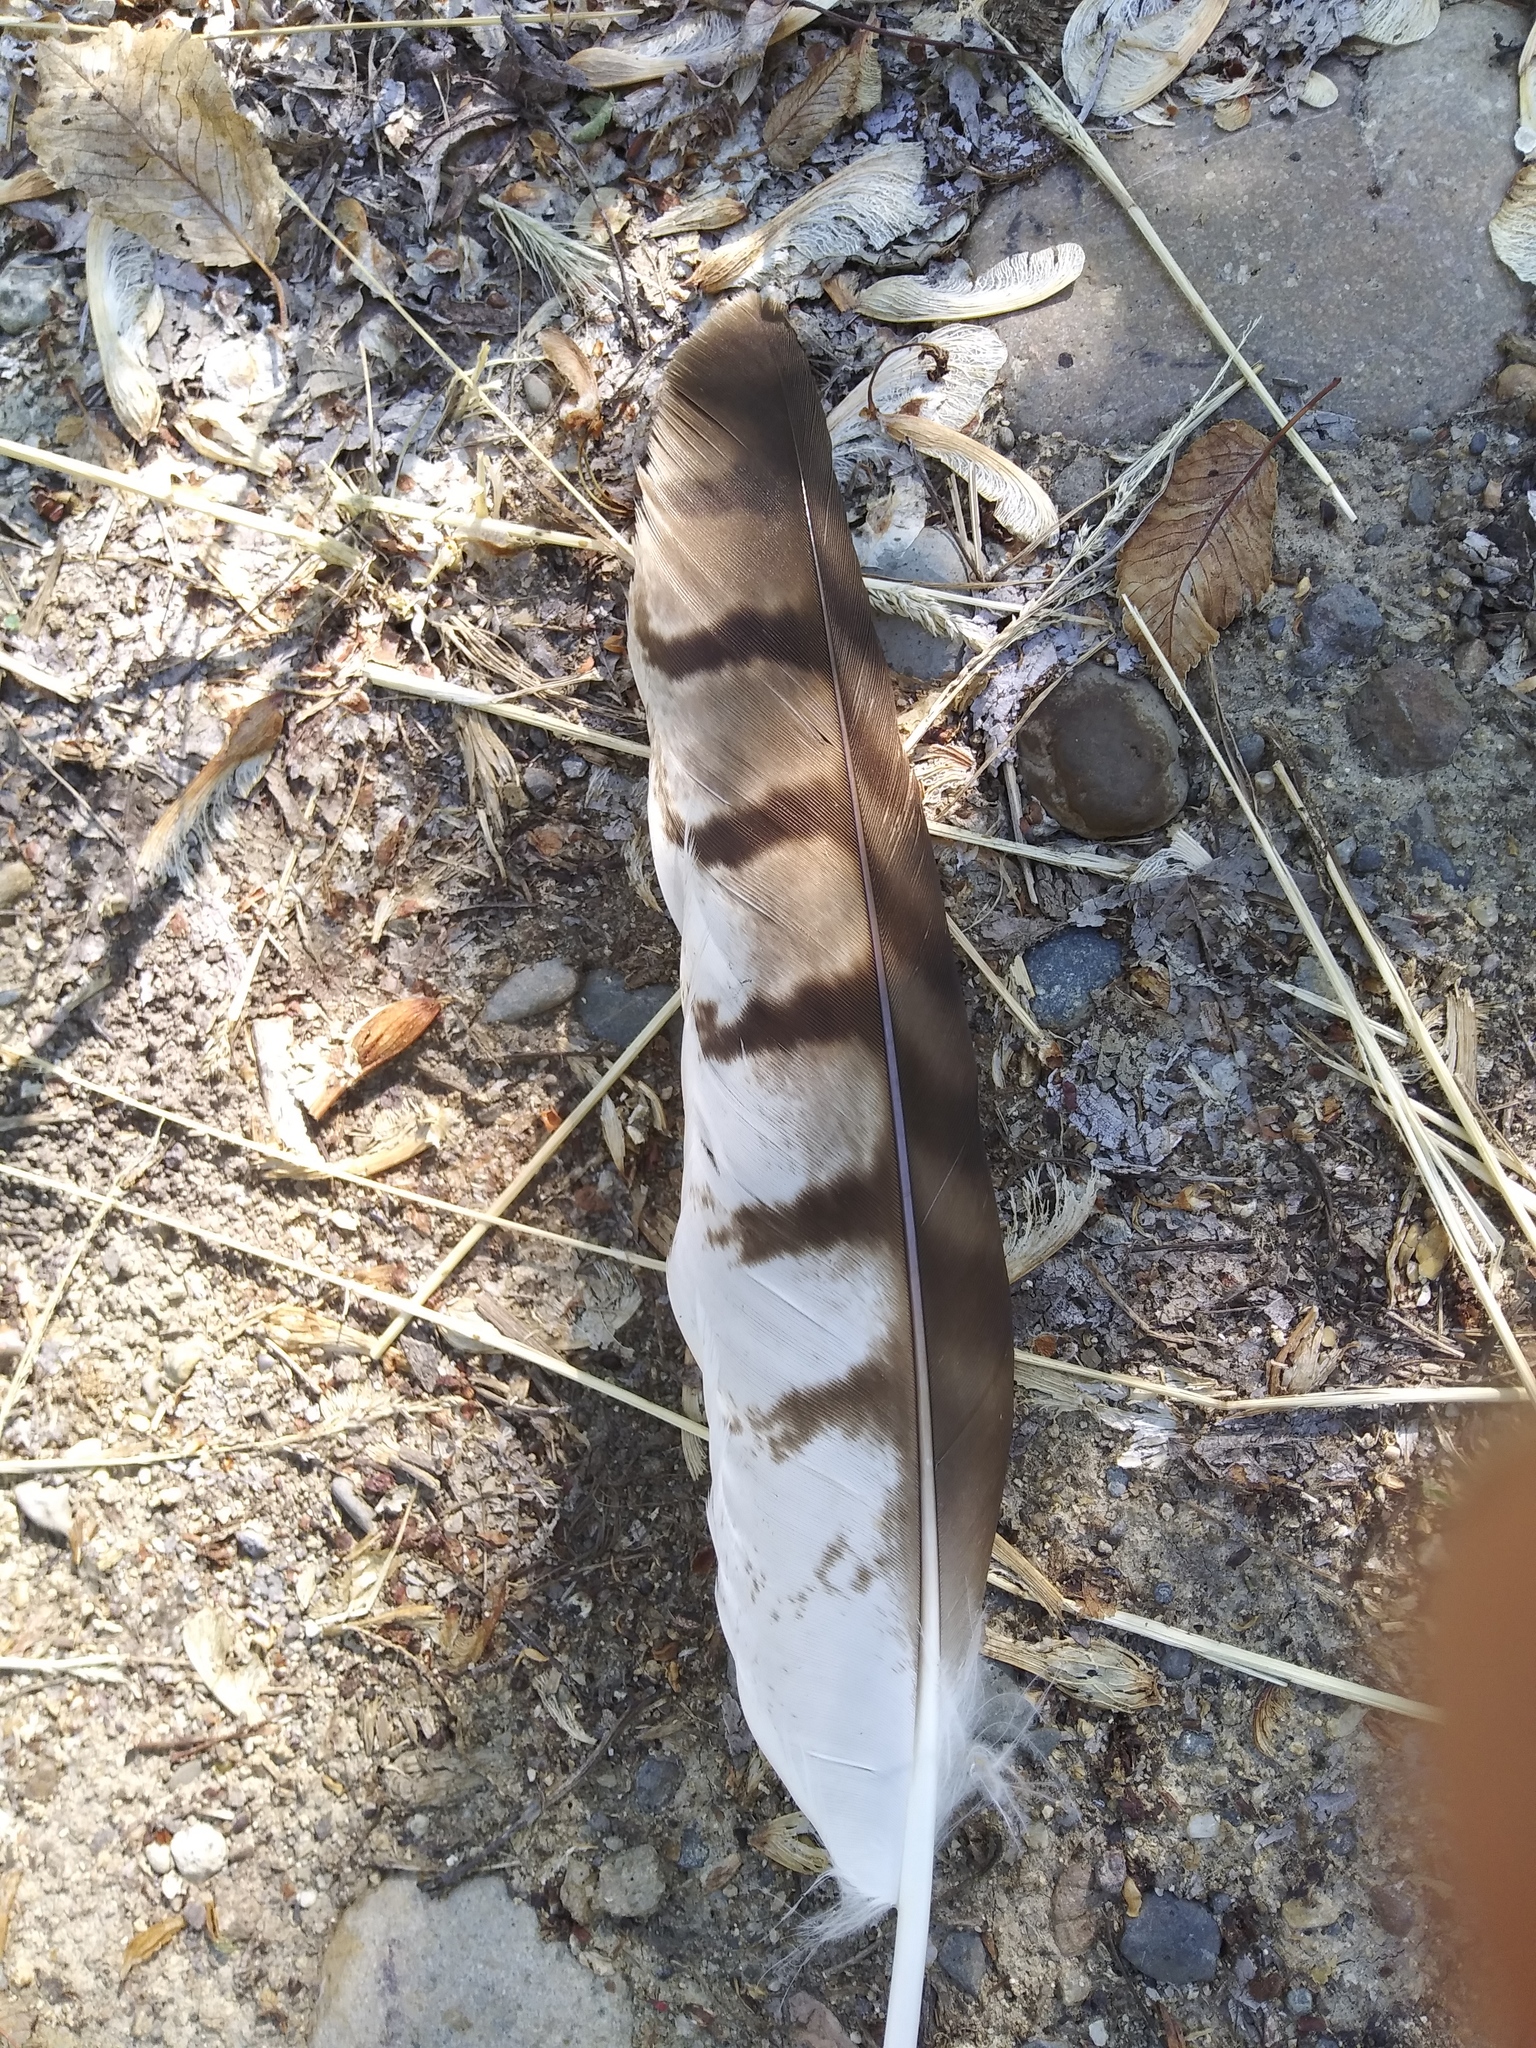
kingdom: Animalia
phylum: Chordata
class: Aves
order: Accipitriformes
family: Accipitridae
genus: Buteo
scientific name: Buteo jamaicensis
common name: Red-tailed hawk
